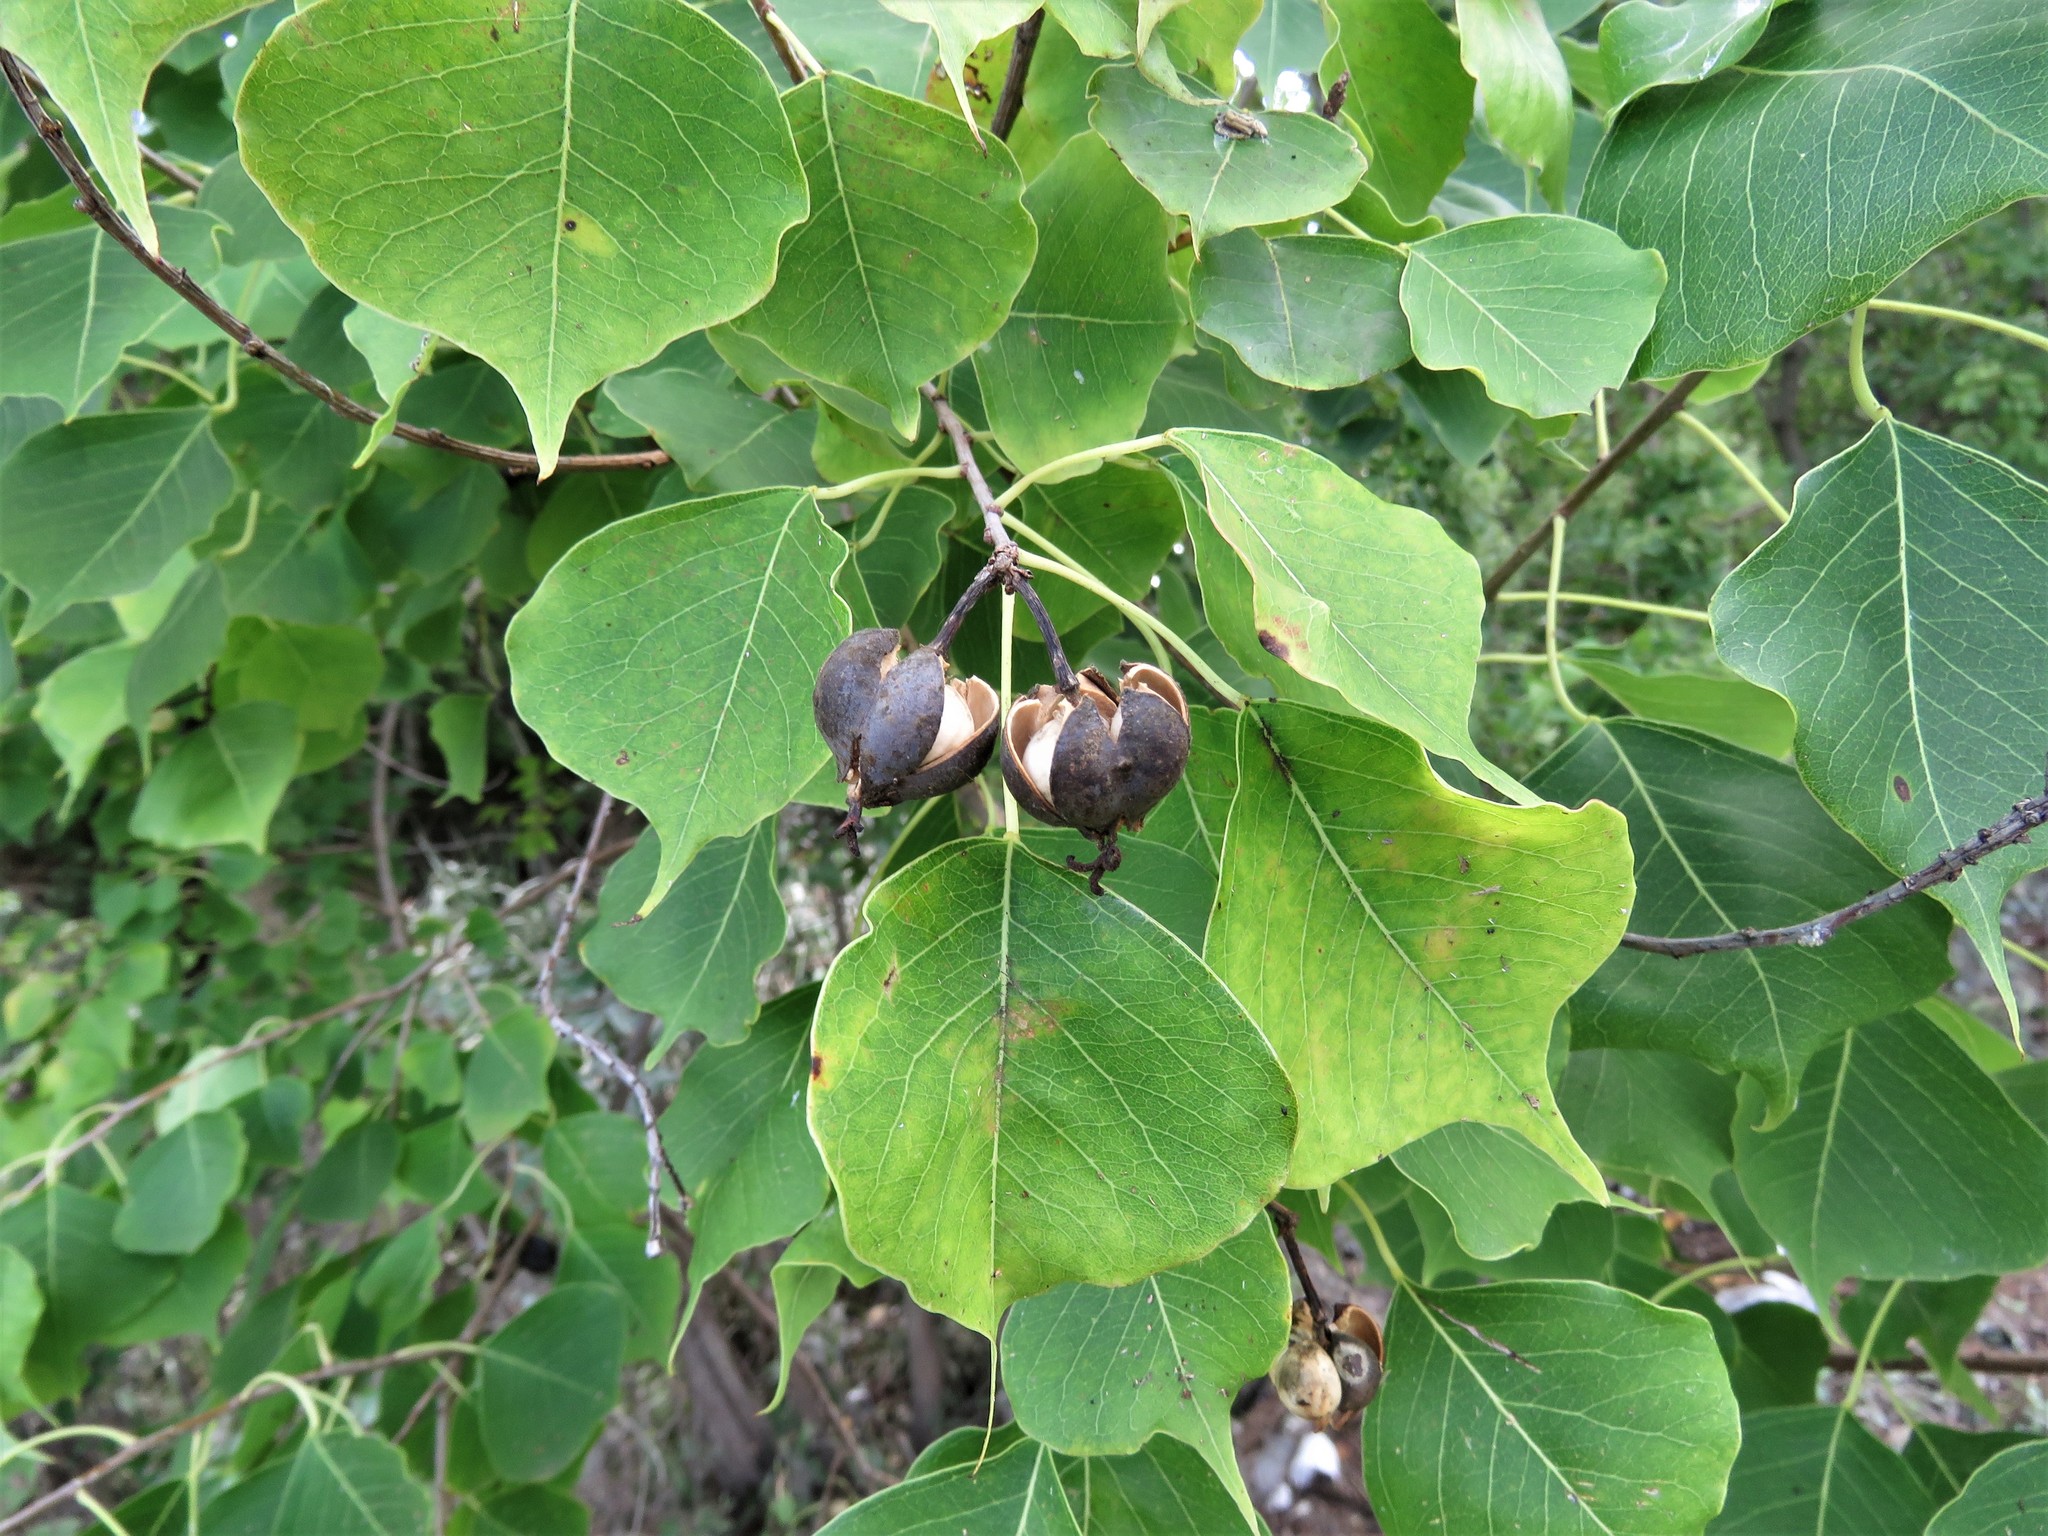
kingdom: Plantae
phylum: Tracheophyta
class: Magnoliopsida
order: Malpighiales
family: Euphorbiaceae
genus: Triadica
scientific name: Triadica sebifera
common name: Chinese tallow
